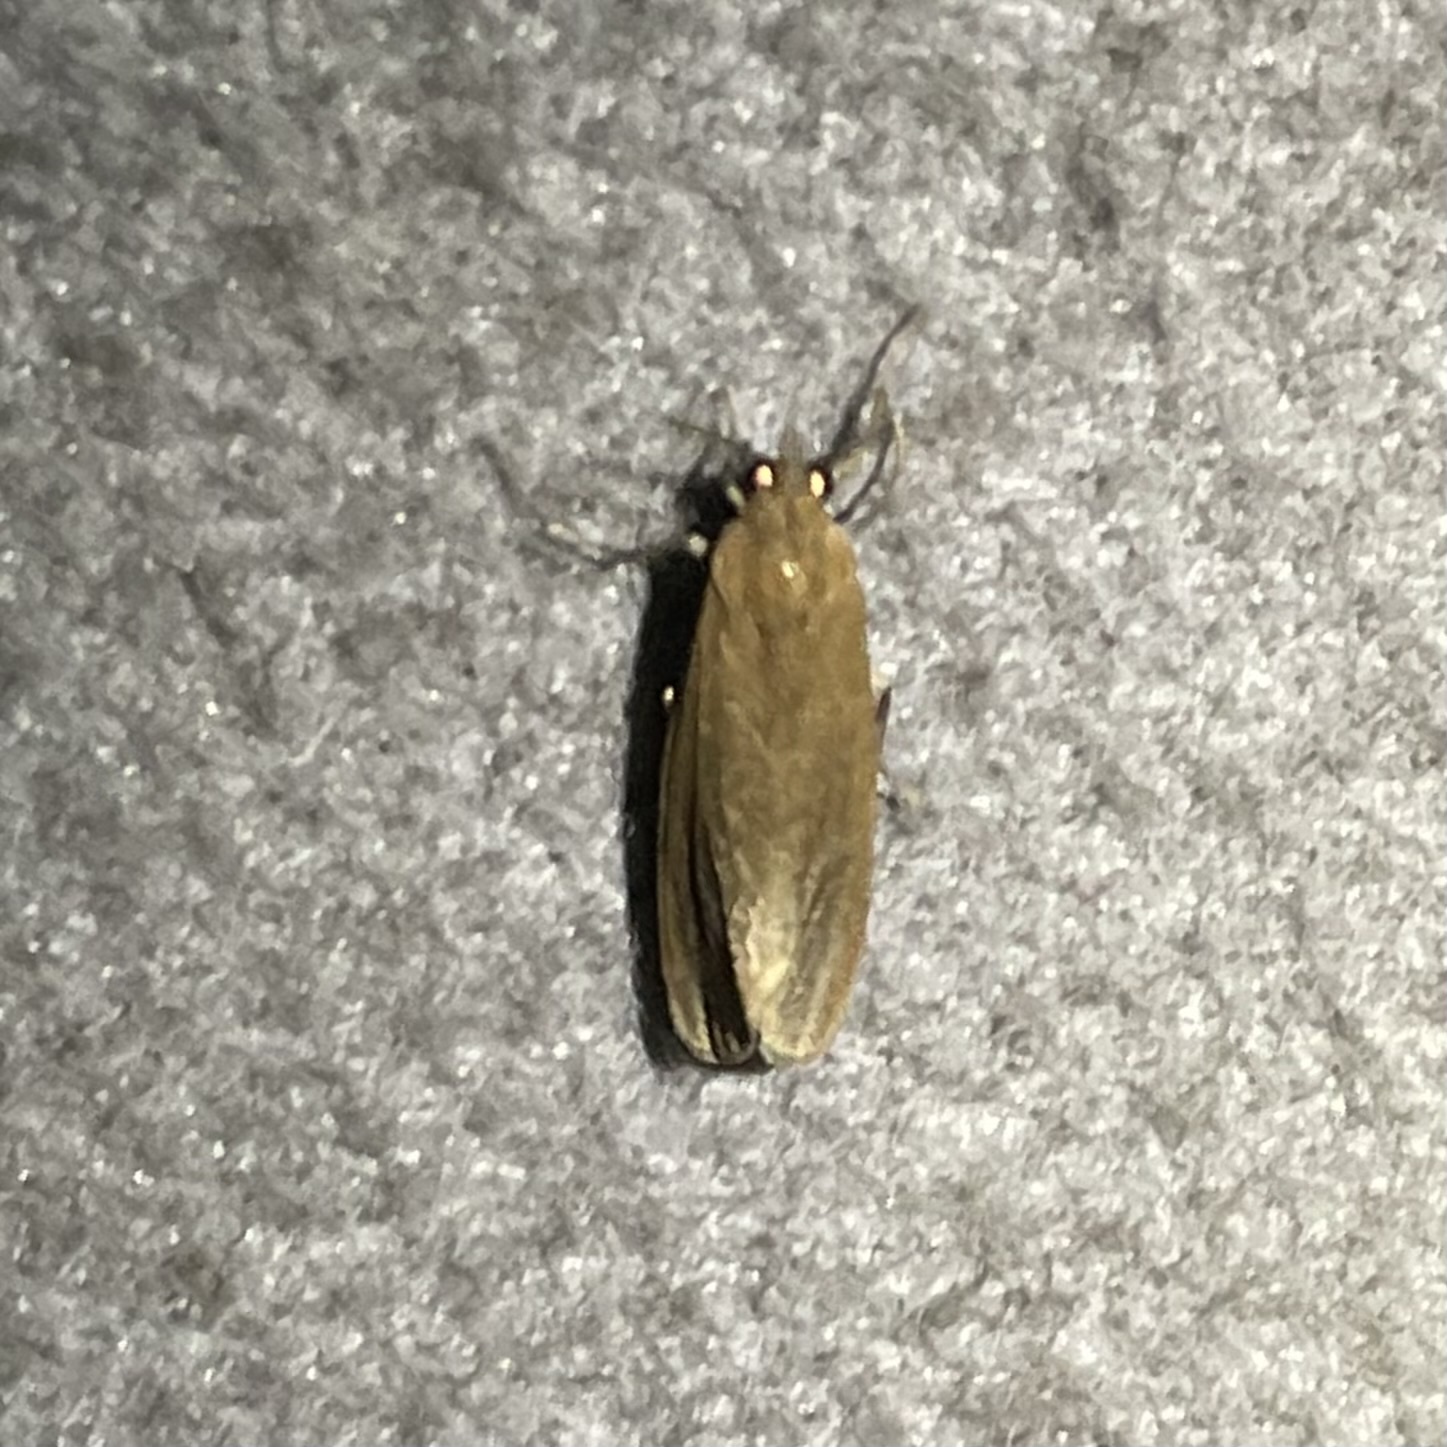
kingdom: Animalia
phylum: Arthropoda
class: Insecta
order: Lepidoptera
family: Erebidae
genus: Virbia
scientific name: Virbia medarda
